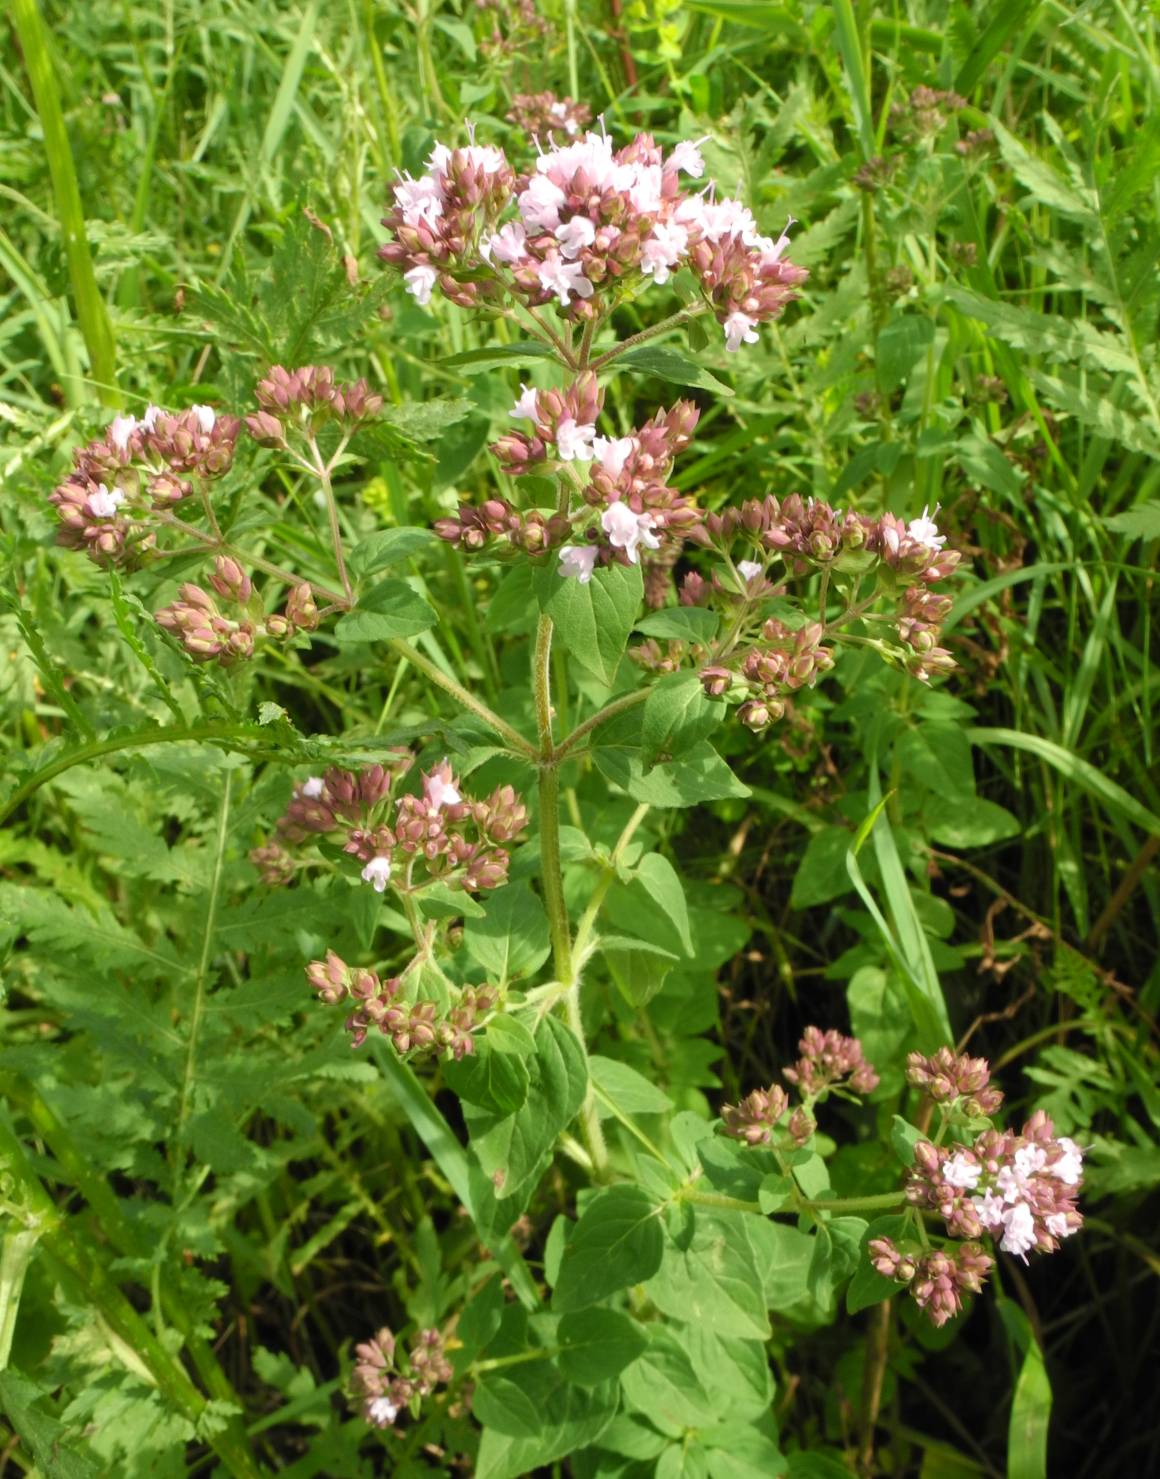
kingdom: Plantae
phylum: Tracheophyta
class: Magnoliopsida
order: Lamiales
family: Lamiaceae
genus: Origanum
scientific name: Origanum vulgare
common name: Wild marjoram
